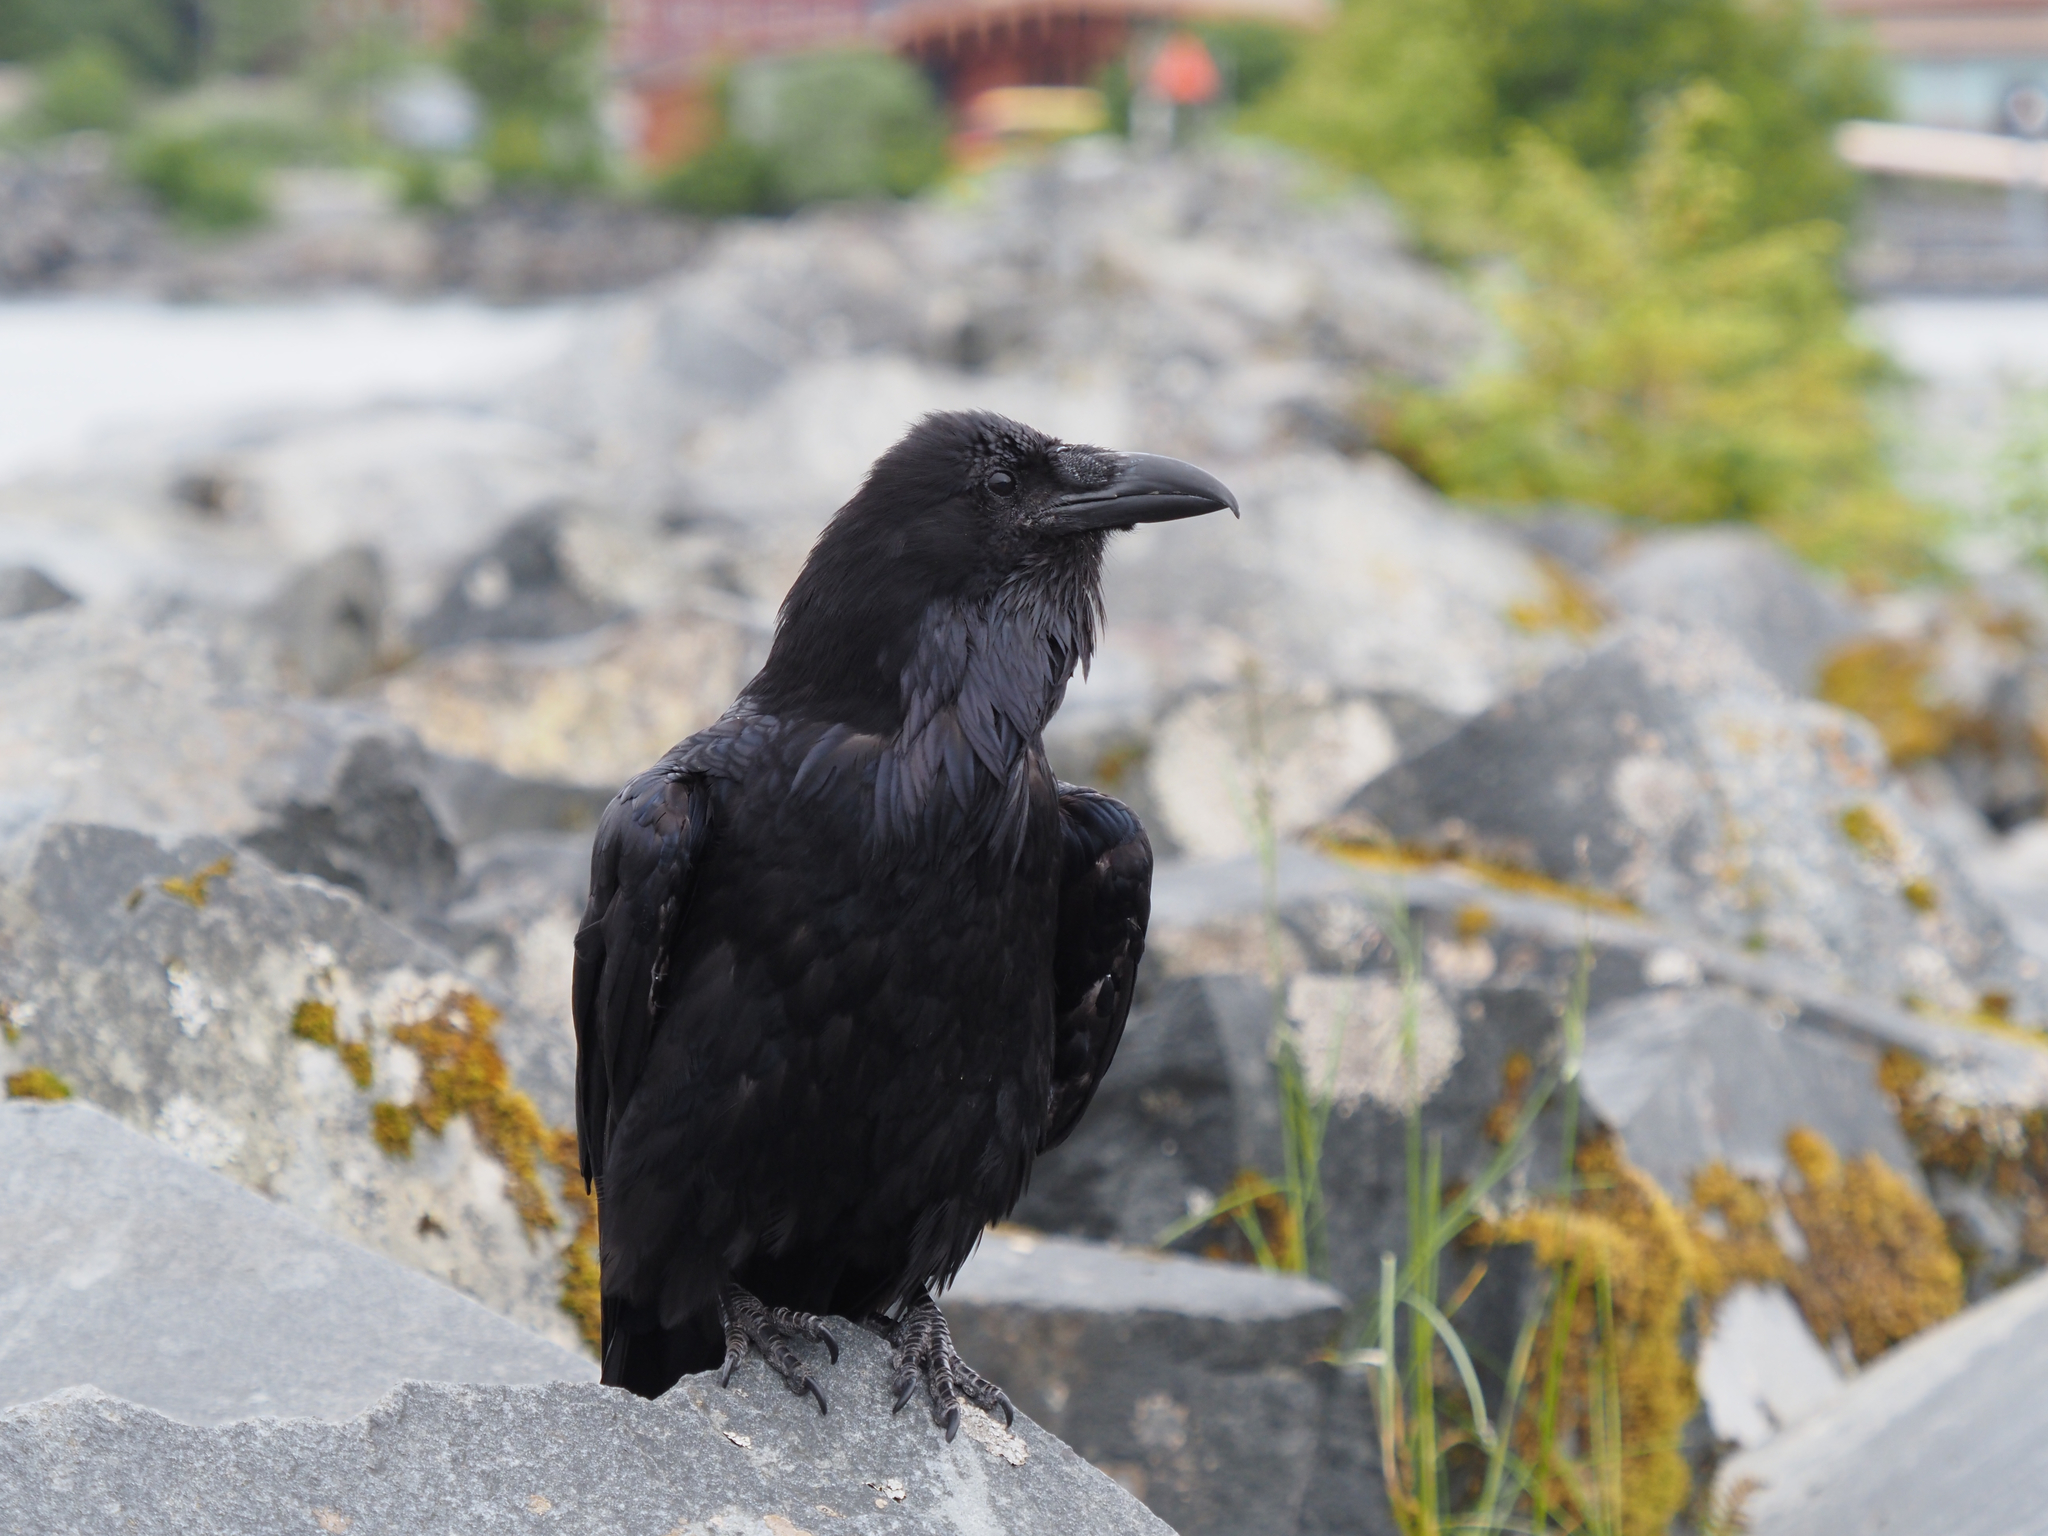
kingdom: Animalia
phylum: Chordata
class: Aves
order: Passeriformes
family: Corvidae
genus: Corvus
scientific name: Corvus corax
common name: Common raven
